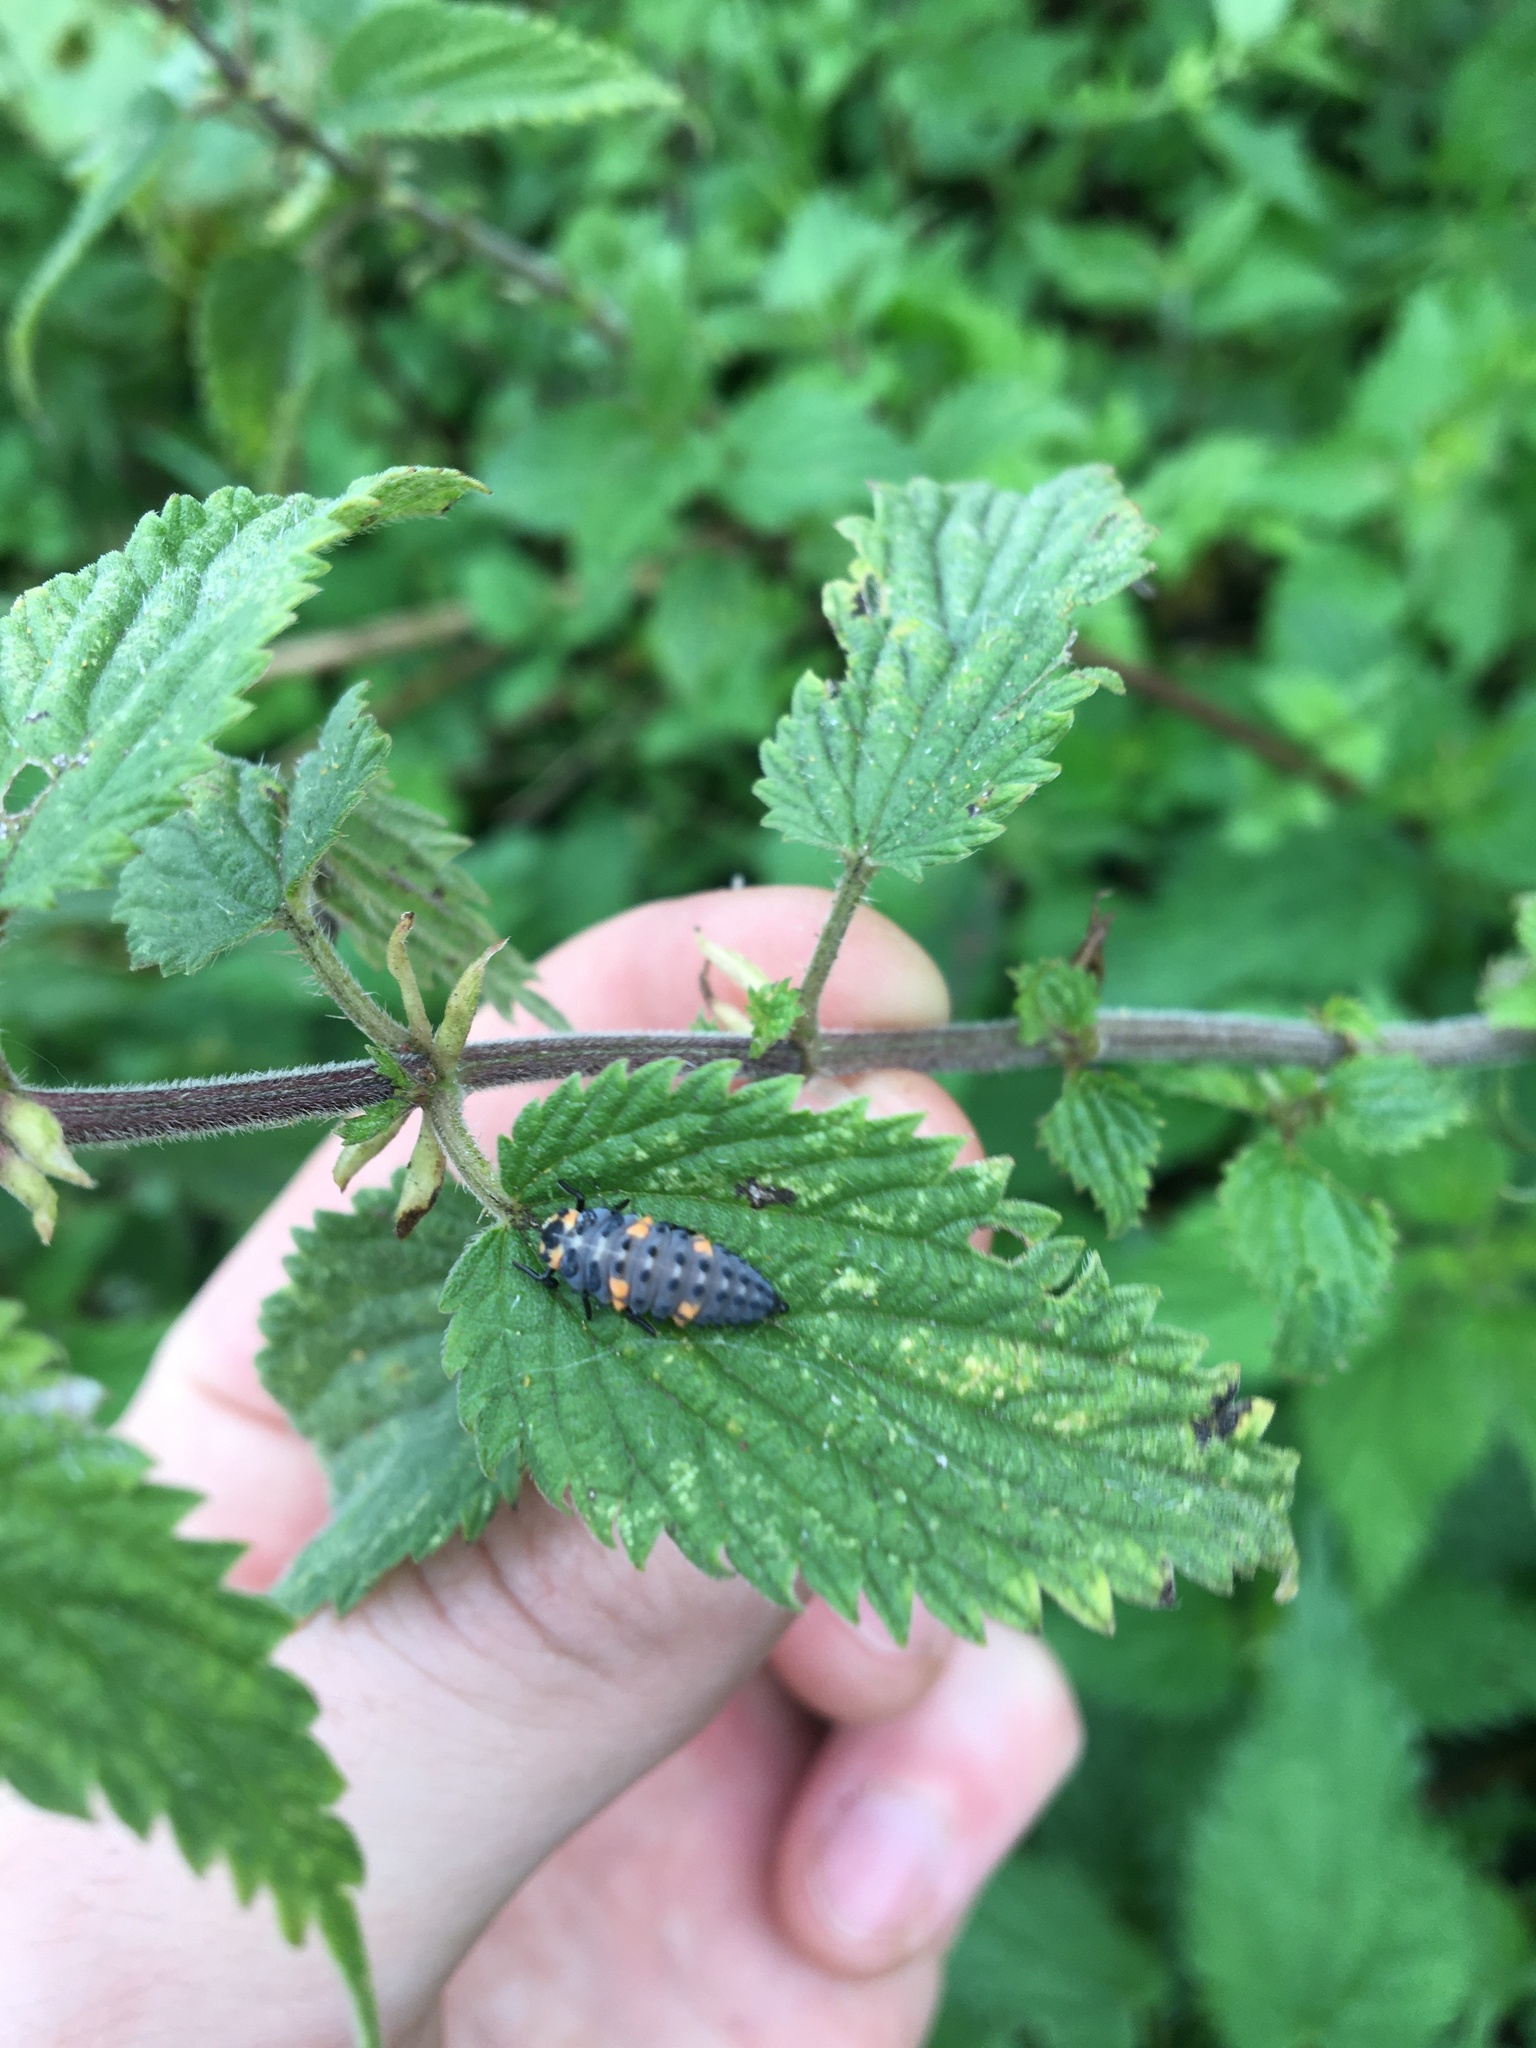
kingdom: Animalia
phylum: Arthropoda
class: Insecta
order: Coleoptera
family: Coccinellidae
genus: Coccinella
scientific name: Coccinella septempunctata
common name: Sevenspotted lady beetle
